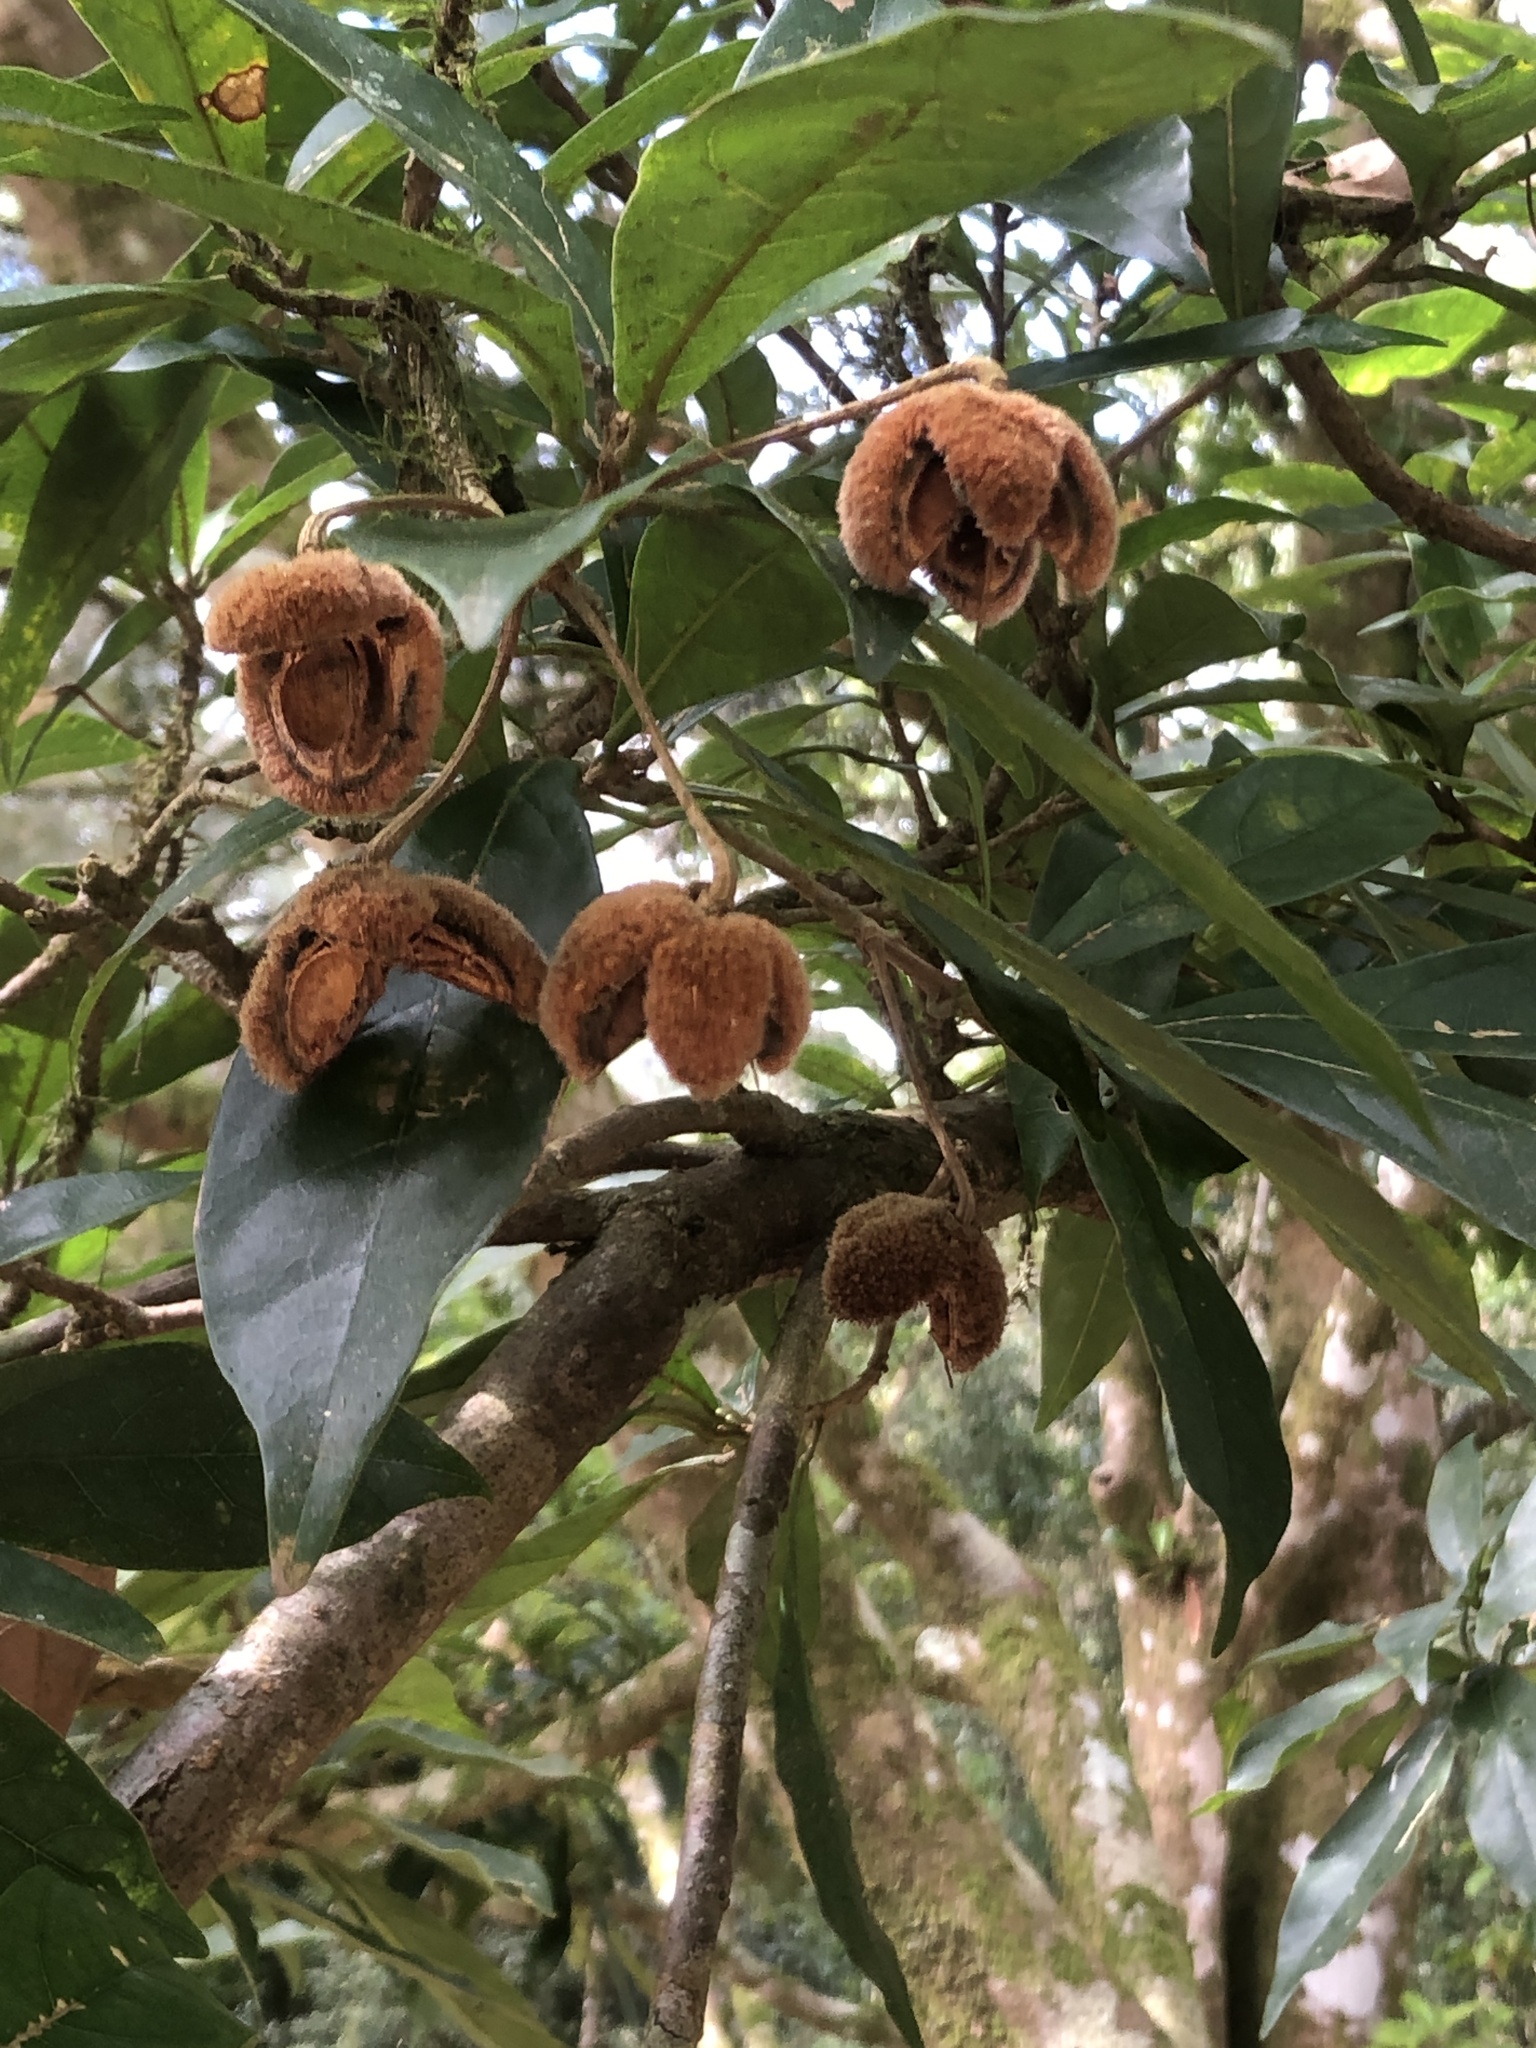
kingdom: Plantae
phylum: Tracheophyta
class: Magnoliopsida
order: Oxalidales
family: Elaeocarpaceae
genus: Sloanea
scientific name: Sloanea dasycarpa
